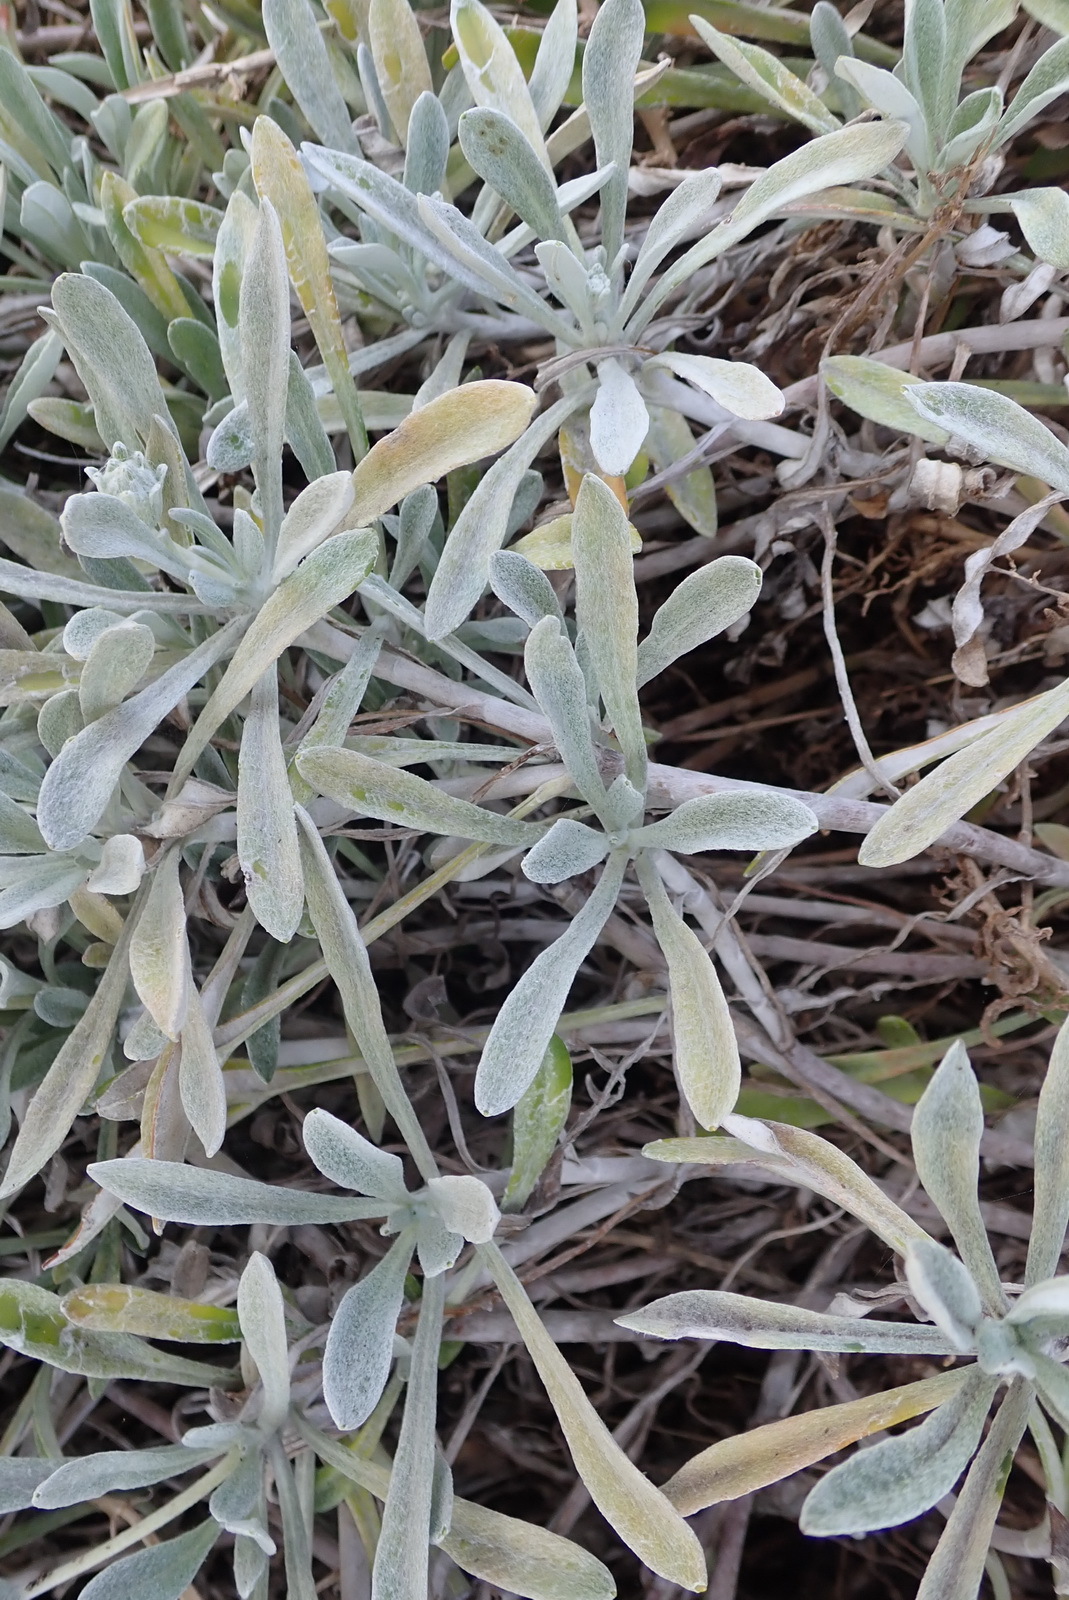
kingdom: Plantae
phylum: Tracheophyta
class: Magnoliopsida
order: Asterales
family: Asteraceae
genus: Gazania
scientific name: Gazania rigens
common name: Treasureflower
